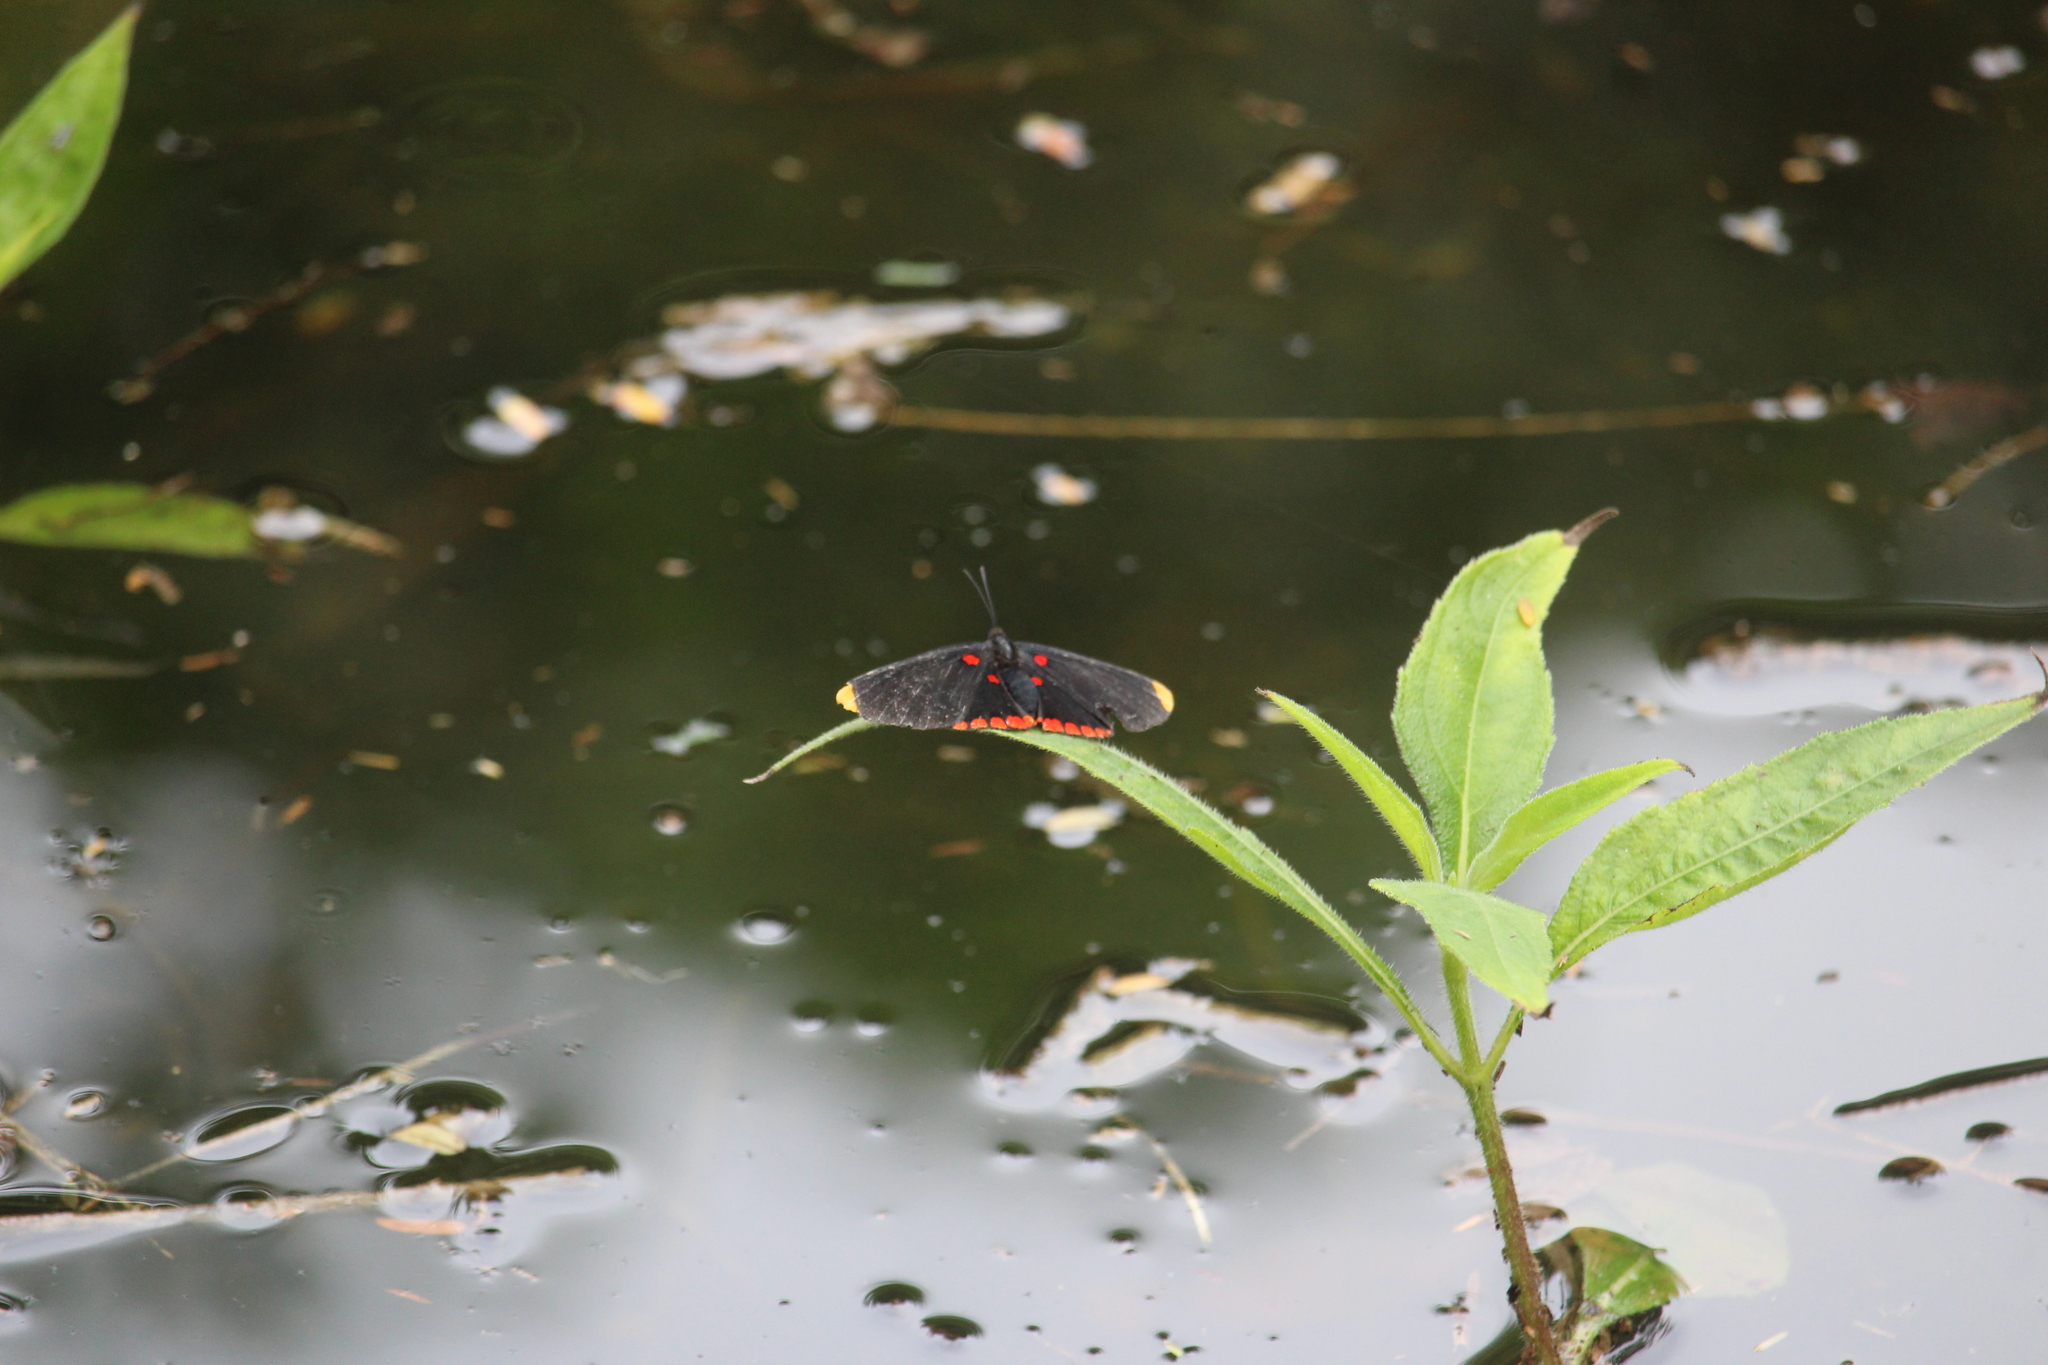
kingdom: Animalia
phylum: Arthropoda
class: Insecta
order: Lepidoptera
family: Lycaenidae
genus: Melanis
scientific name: Melanis pixe
